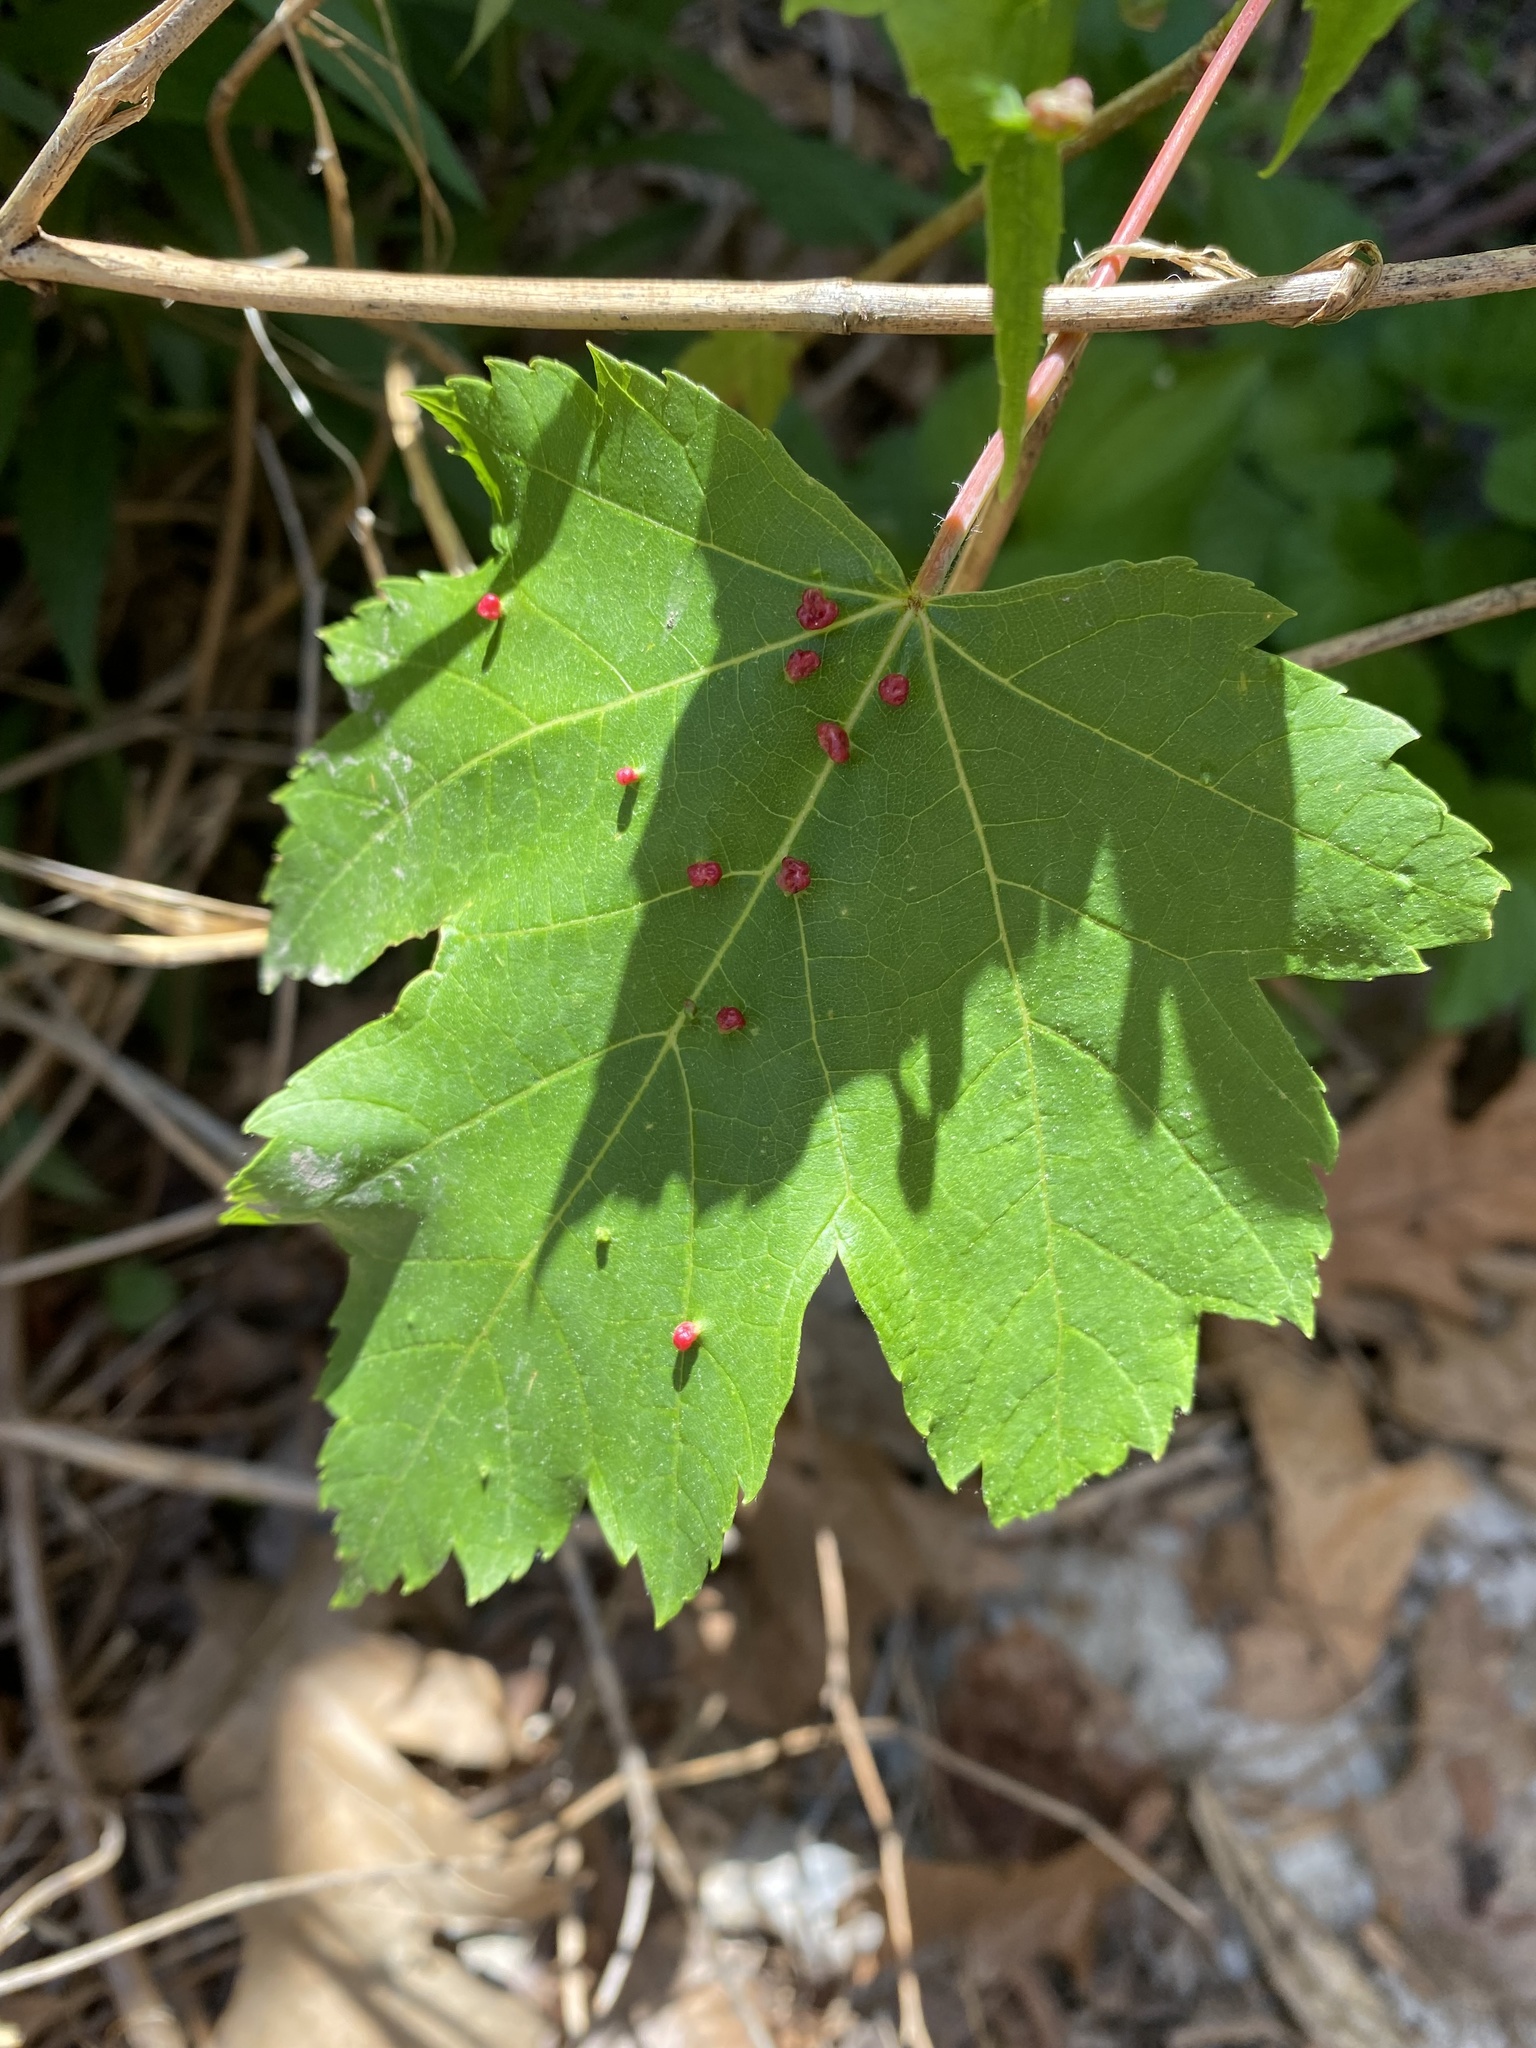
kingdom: Animalia
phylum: Arthropoda
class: Arachnida
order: Trombidiformes
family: Eriophyidae
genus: Vasates
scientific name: Vasates quadripedes
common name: Maple bladder gall mite
